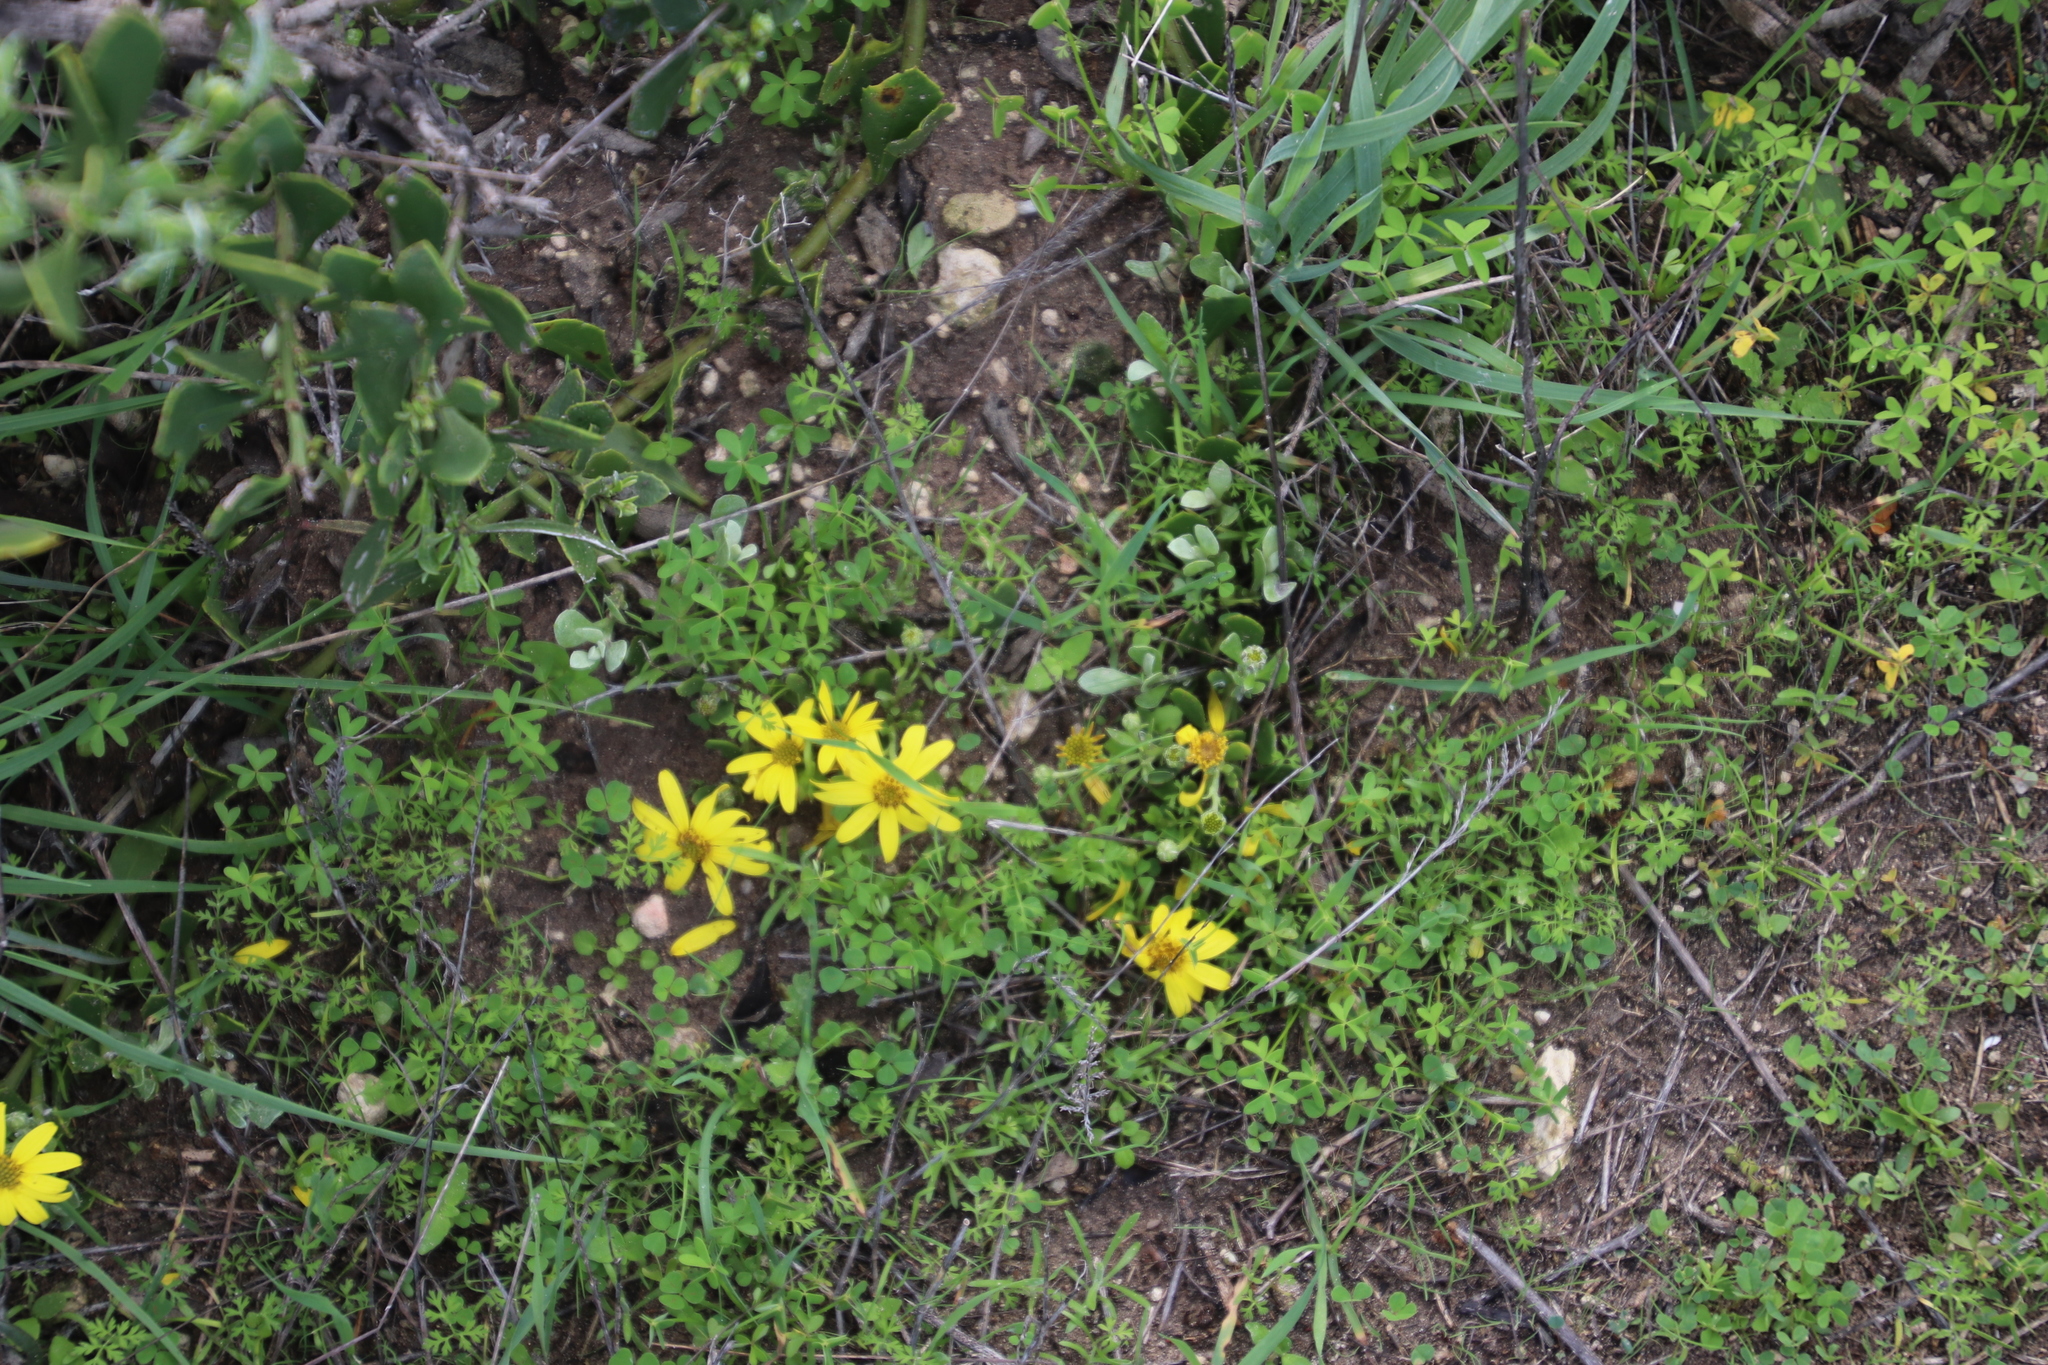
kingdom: Plantae
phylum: Tracheophyta
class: Magnoliopsida
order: Asterales
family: Asteraceae
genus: Osteospermum
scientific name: Osteospermum moniliferum
